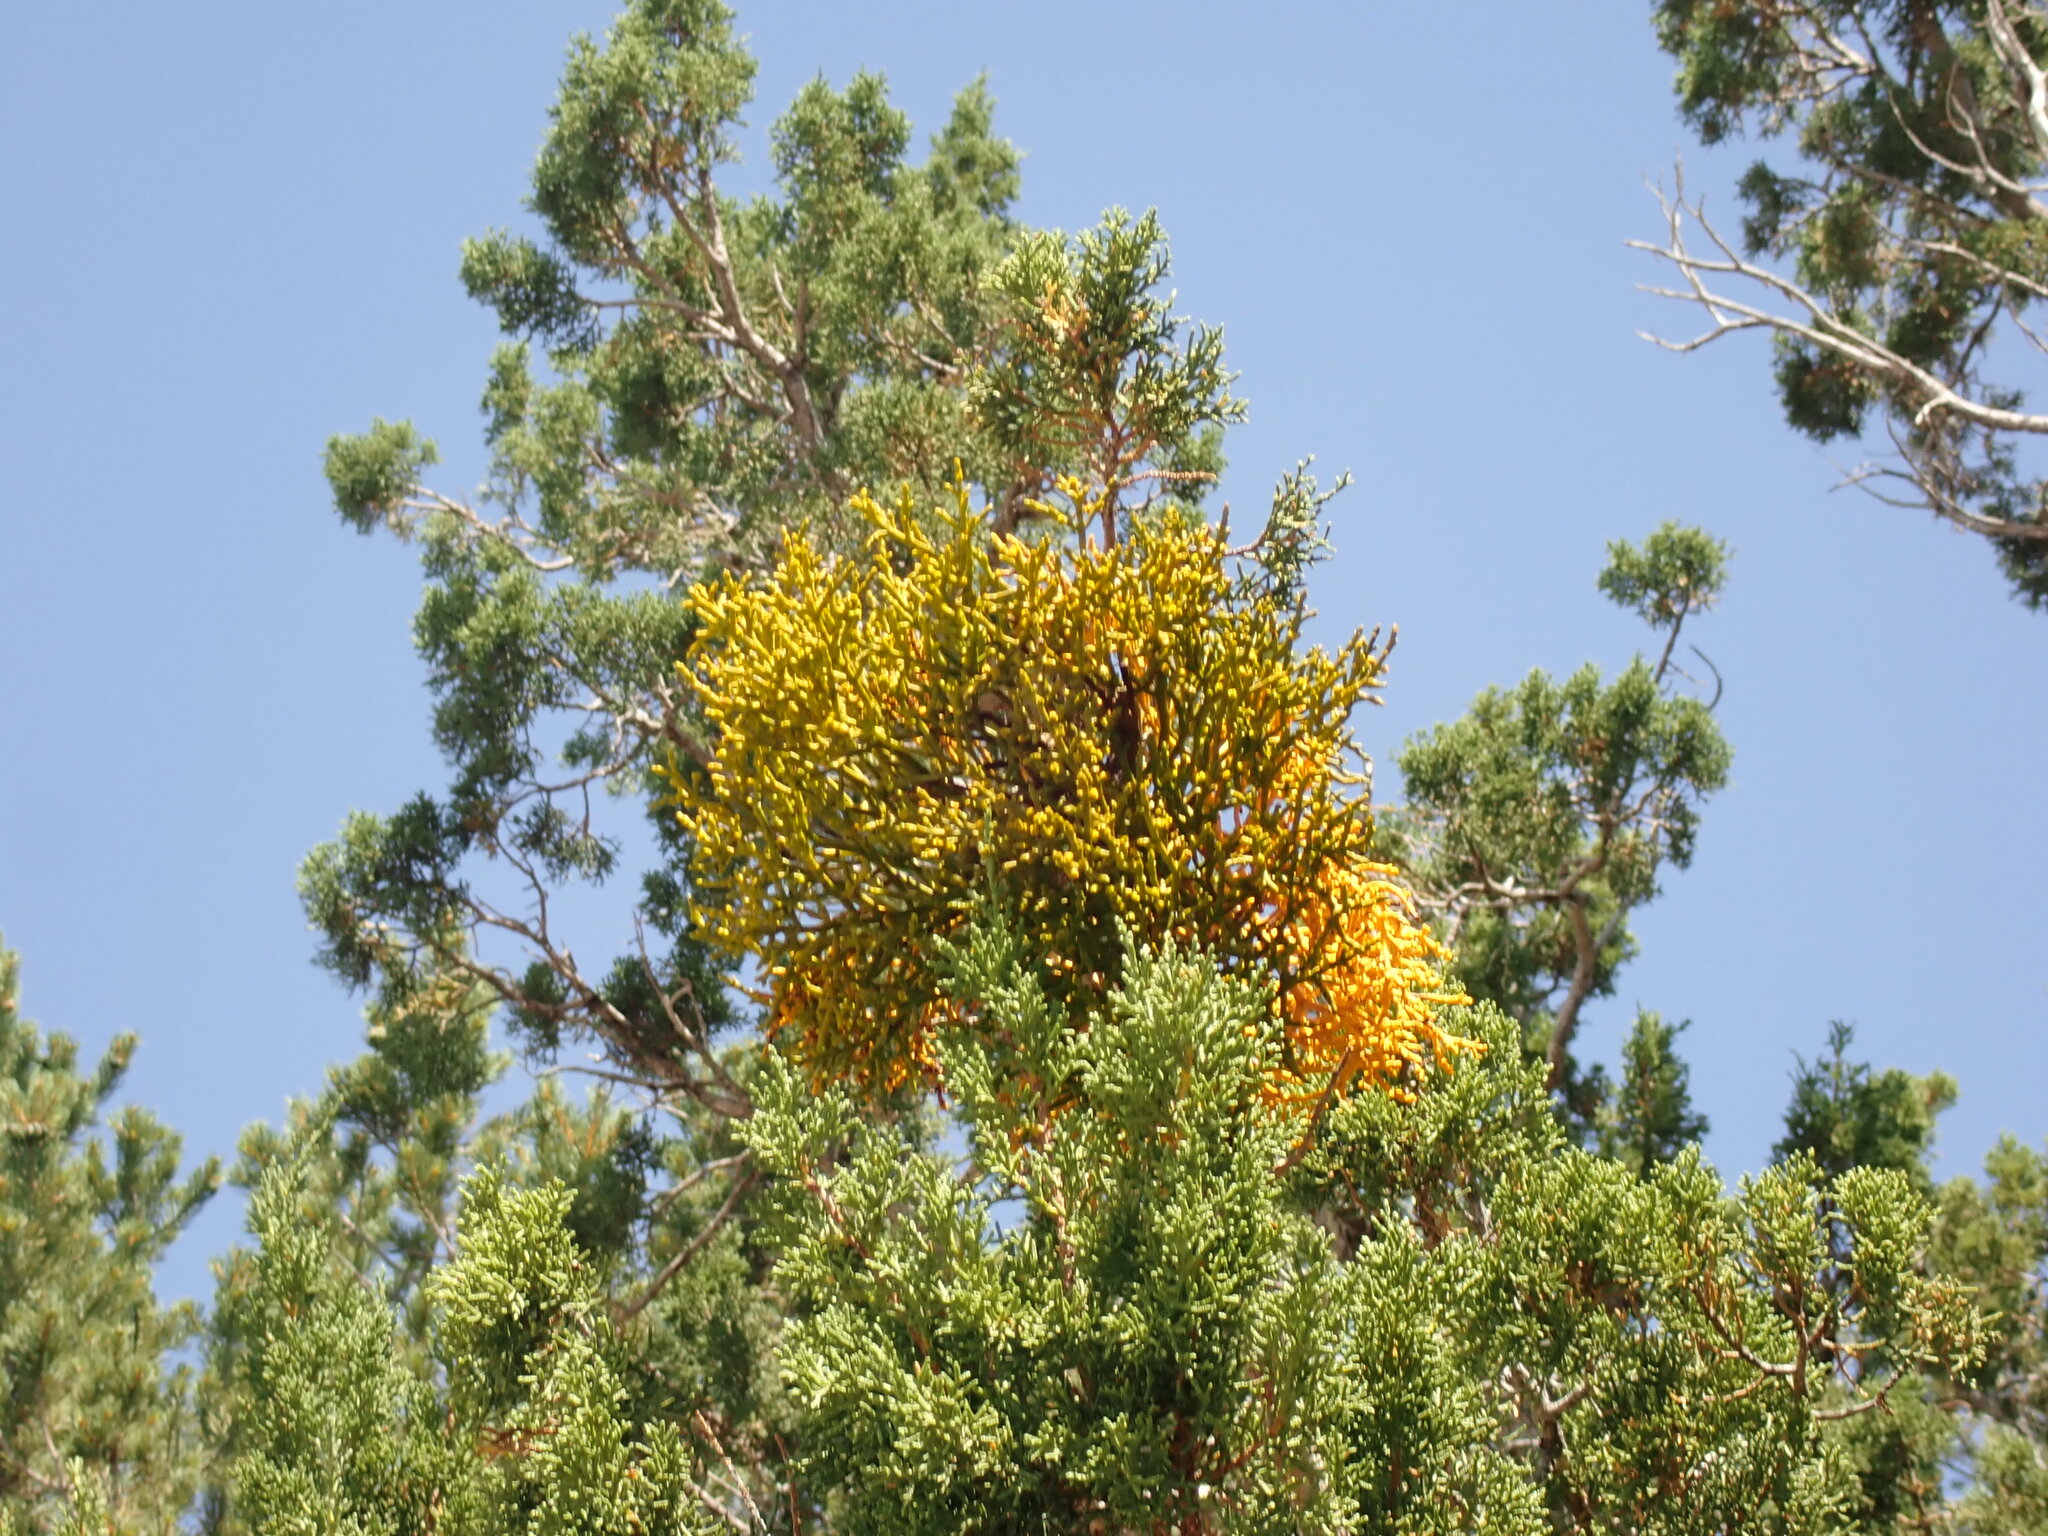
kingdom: Plantae
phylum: Tracheophyta
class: Magnoliopsida
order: Santalales
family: Viscaceae
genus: Phoradendron
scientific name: Phoradendron juniperinum
